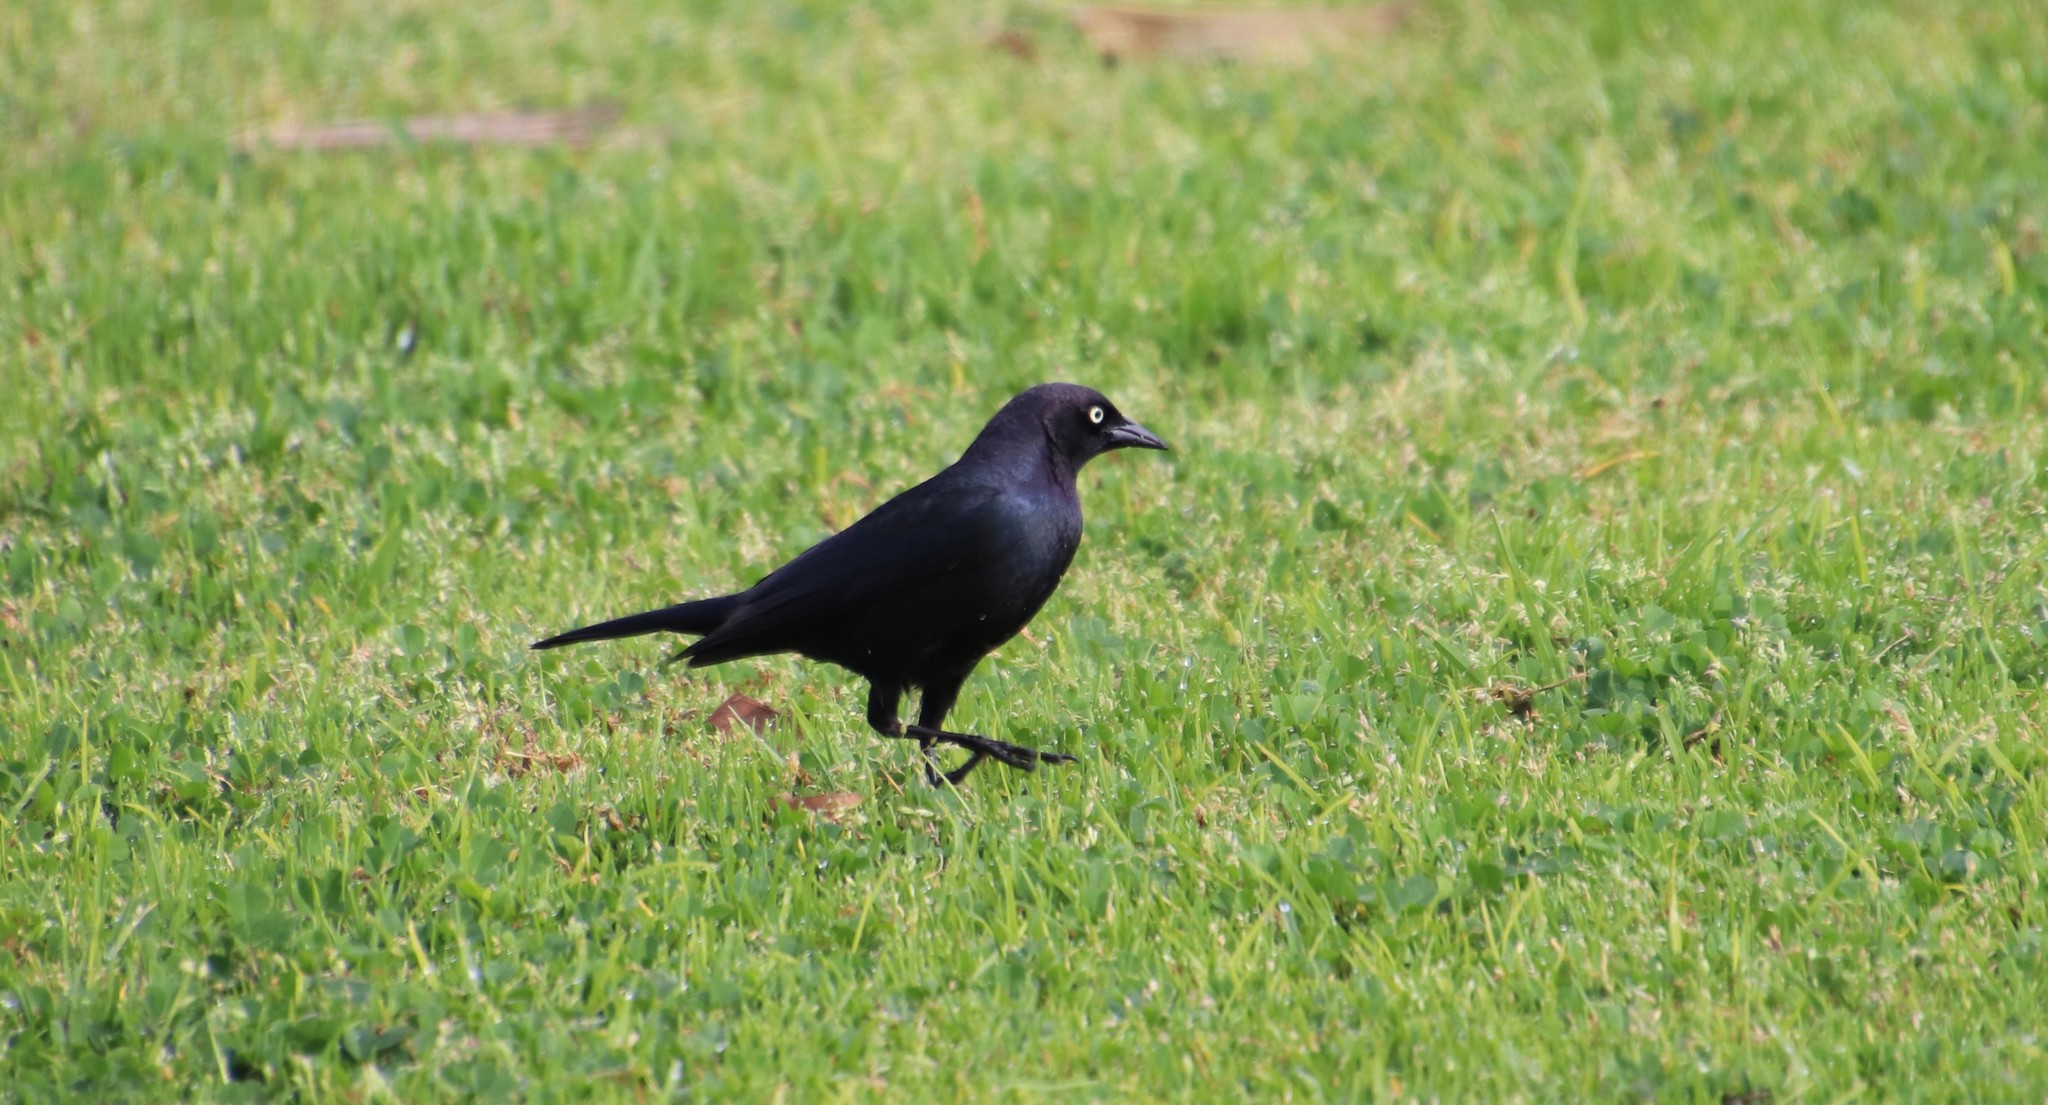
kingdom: Animalia
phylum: Chordata
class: Aves
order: Passeriformes
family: Icteridae
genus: Euphagus
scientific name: Euphagus cyanocephalus
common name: Brewer's blackbird
